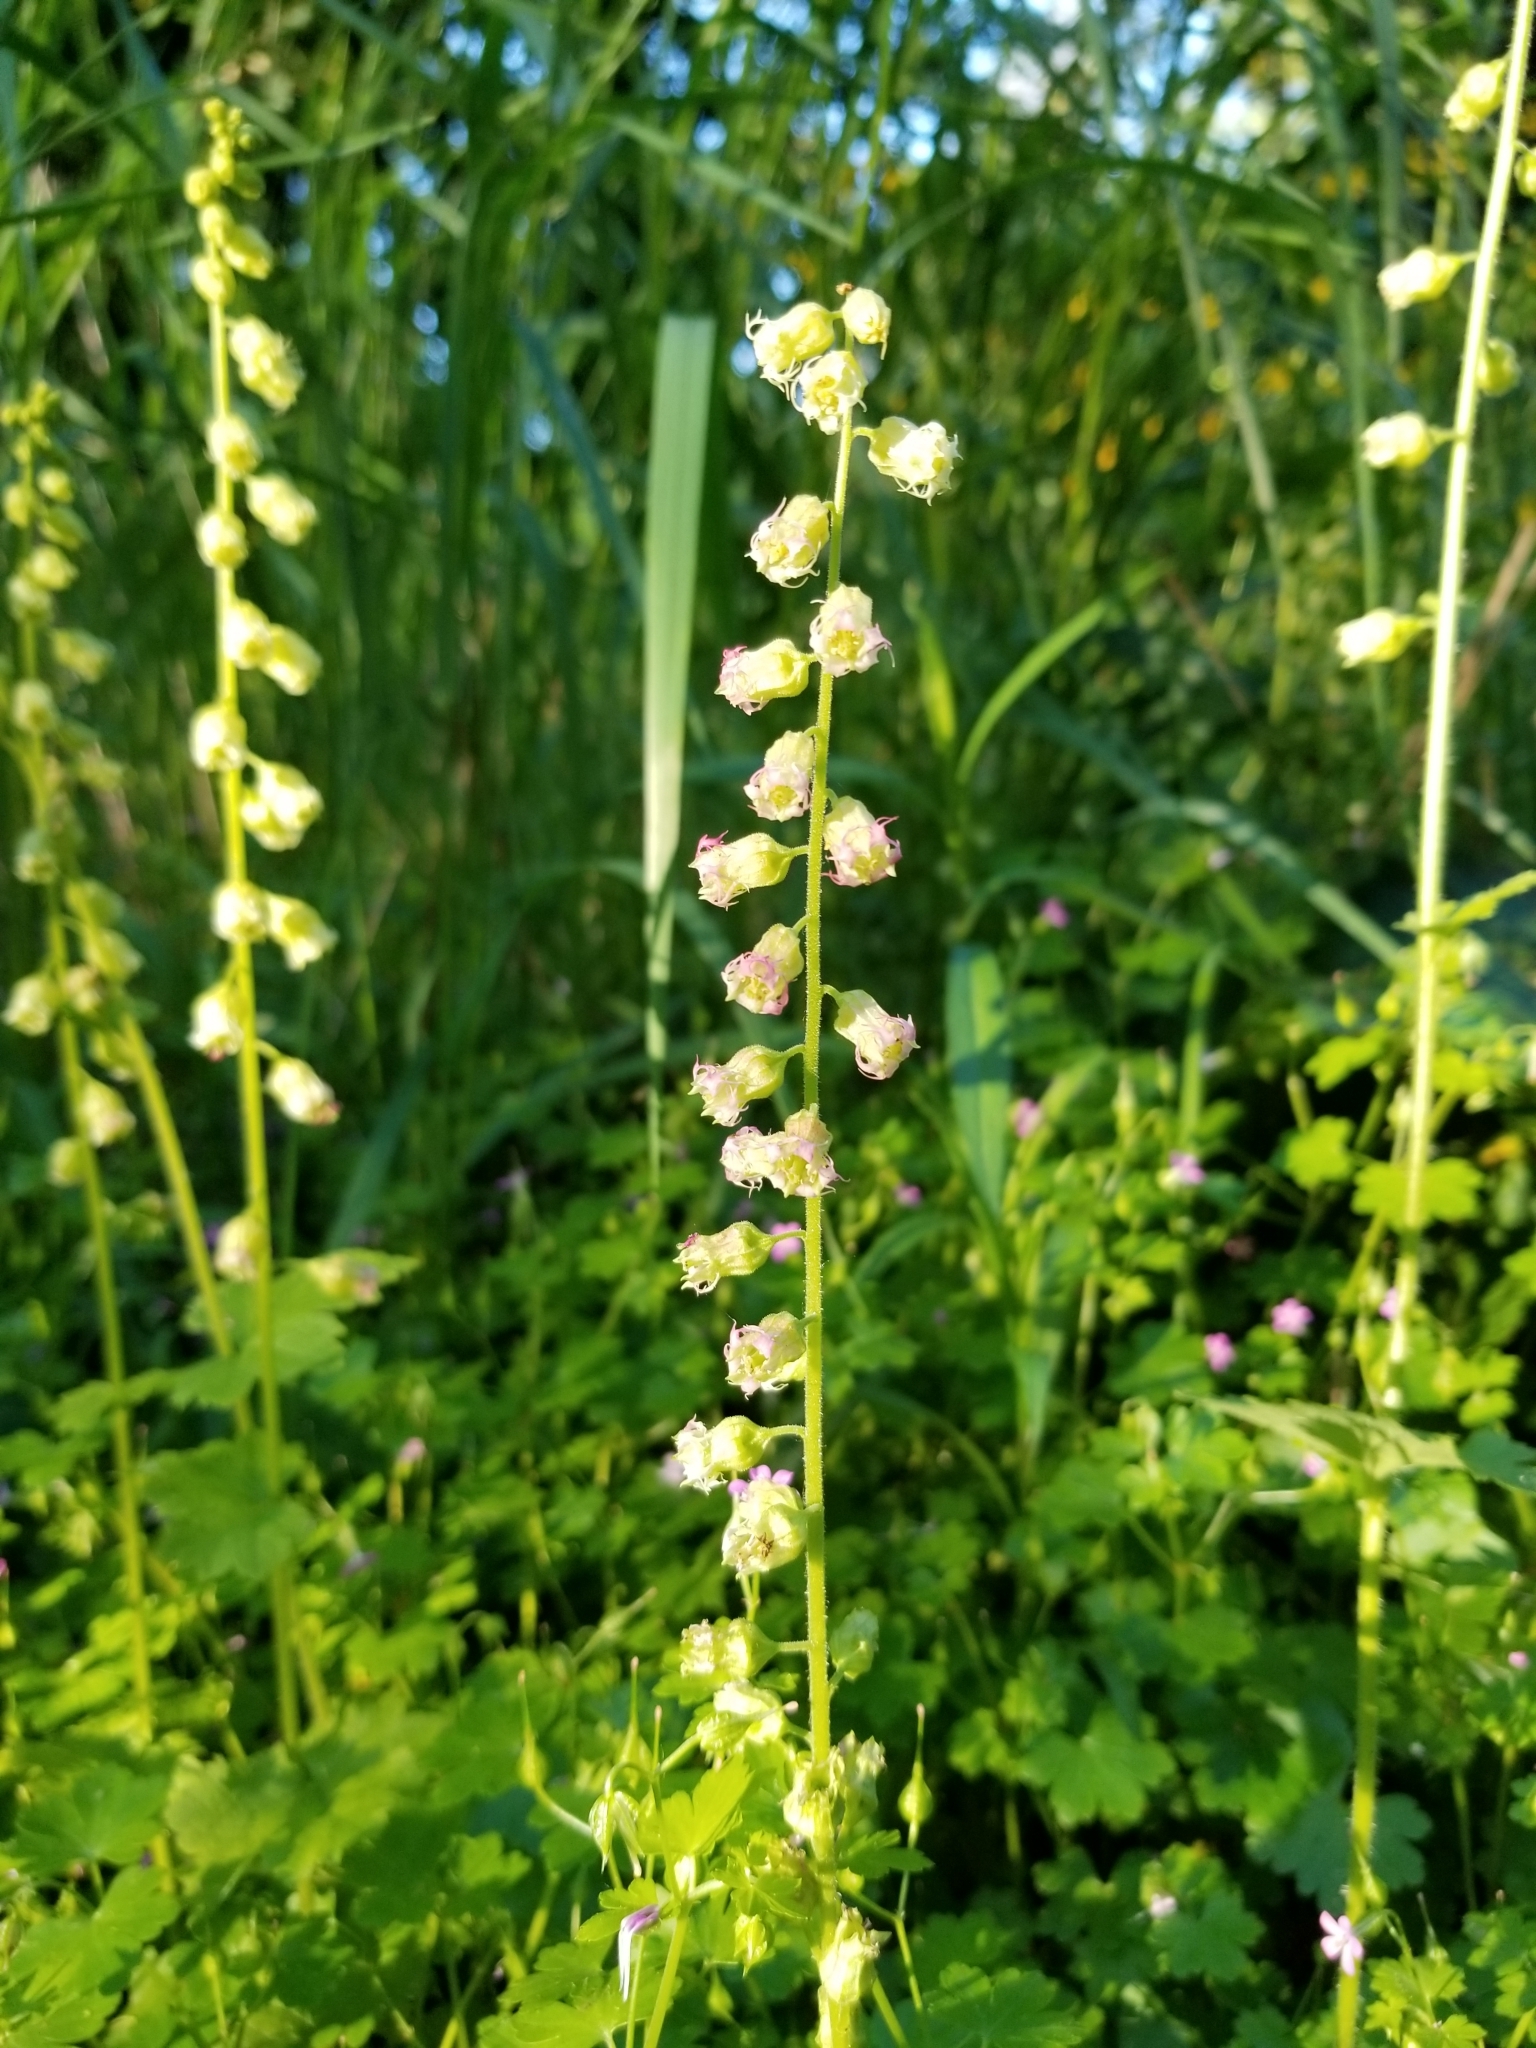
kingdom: Plantae
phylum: Tracheophyta
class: Magnoliopsida
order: Saxifragales
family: Saxifragaceae
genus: Tellima
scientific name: Tellima grandiflora
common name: Fringecups
